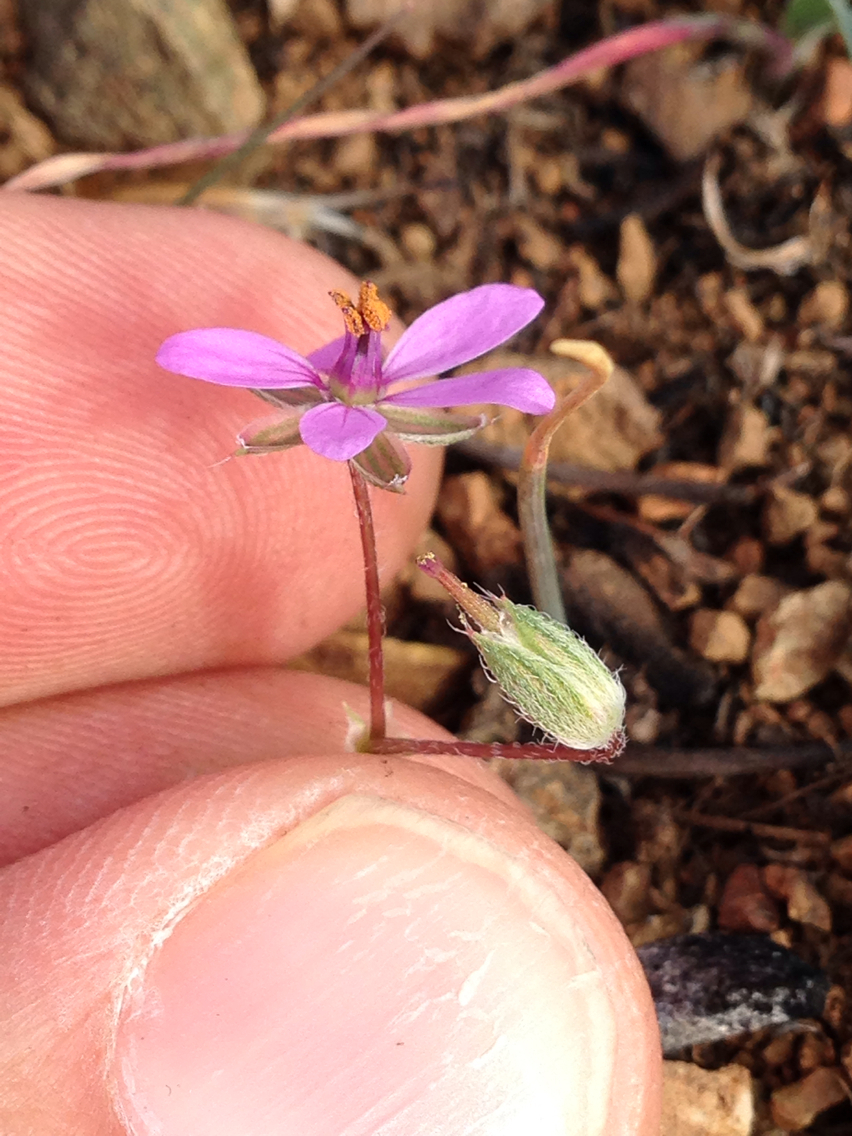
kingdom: Plantae
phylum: Tracheophyta
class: Magnoliopsida
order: Geraniales
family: Geraniaceae
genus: Erodium
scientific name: Erodium cicutarium
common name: Common stork's-bill
